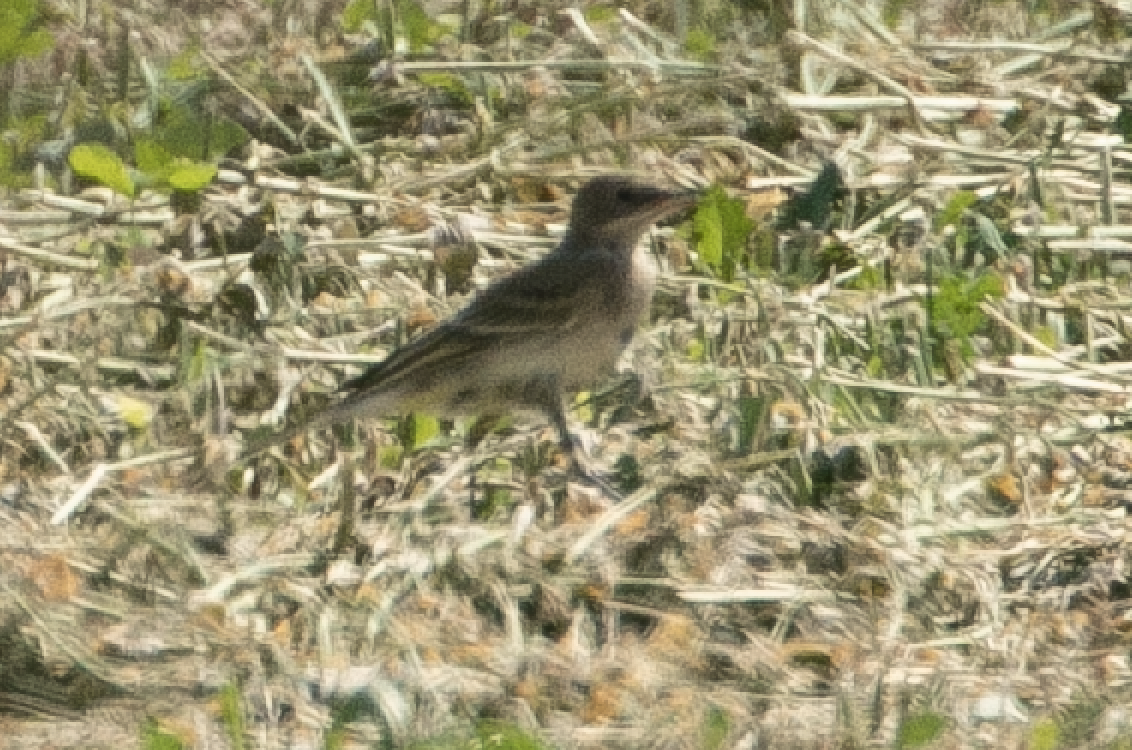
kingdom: Animalia
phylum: Chordata
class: Aves
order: Passeriformes
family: Motacillidae
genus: Motacilla
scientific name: Motacilla flava
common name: Western yellow wagtail
